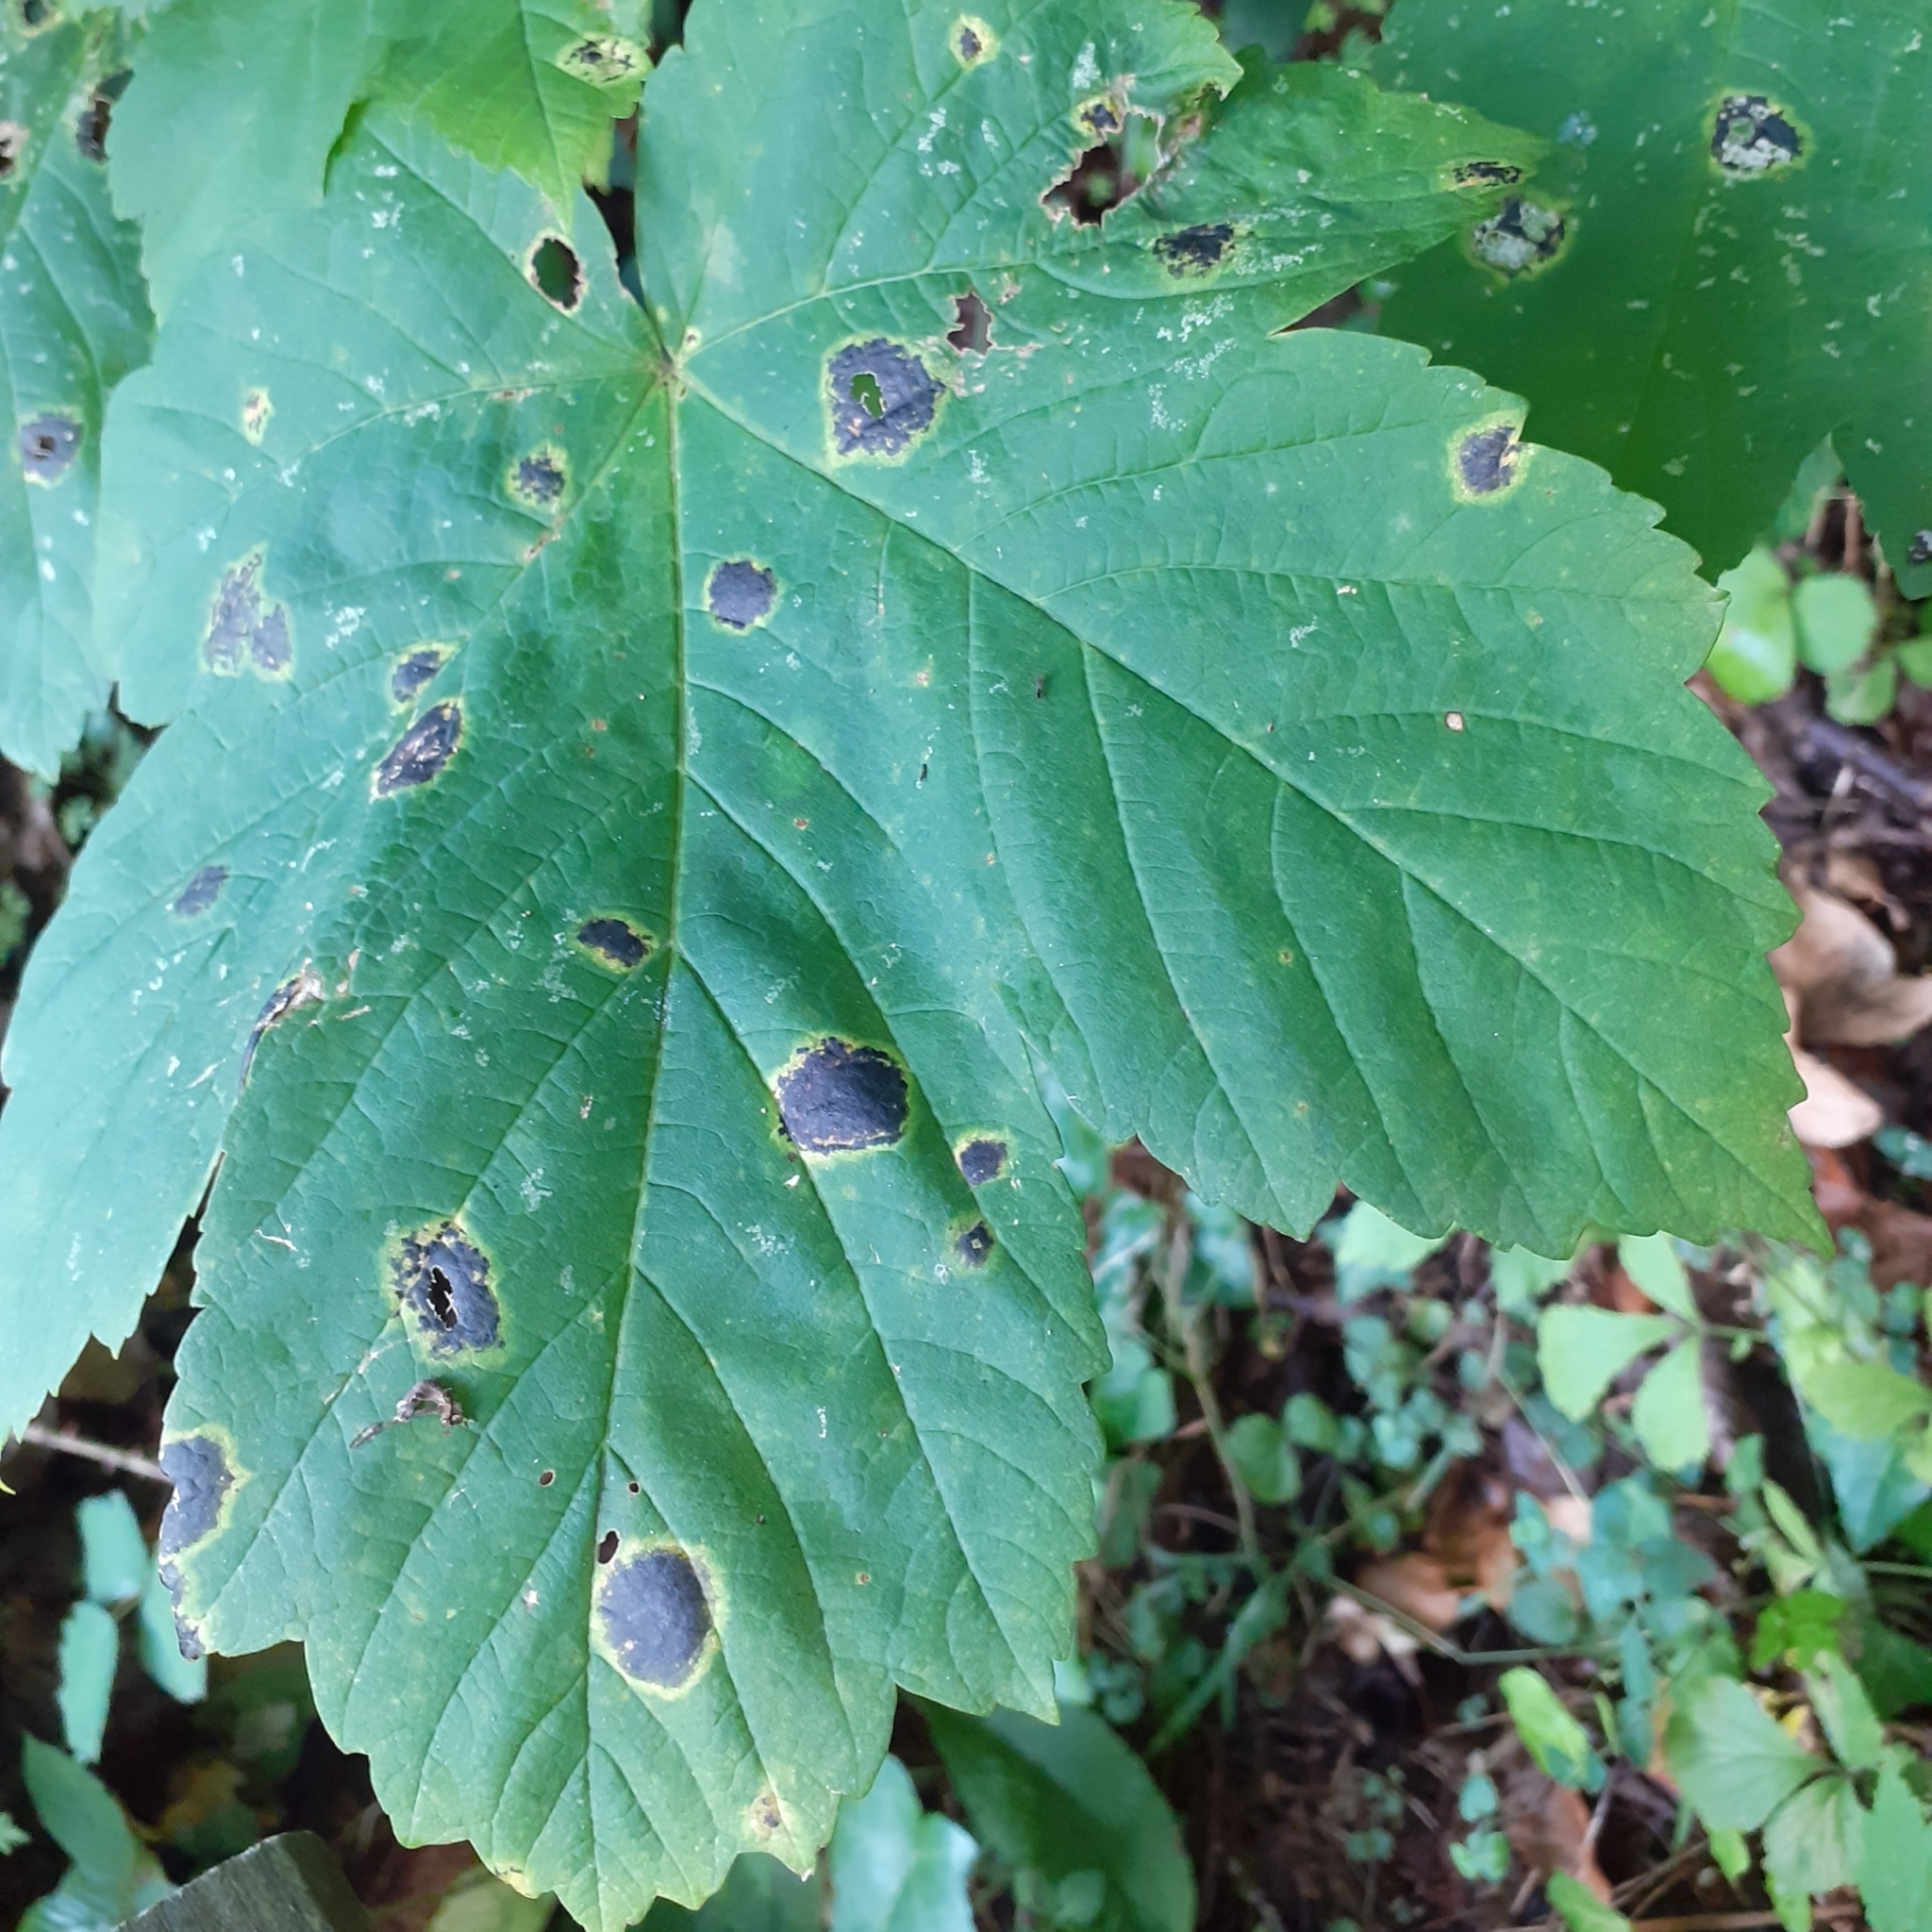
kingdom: Fungi
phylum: Ascomycota
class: Leotiomycetes
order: Rhytismatales
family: Rhytismataceae
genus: Rhytisma
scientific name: Rhytisma acerinum
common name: European tar spot
